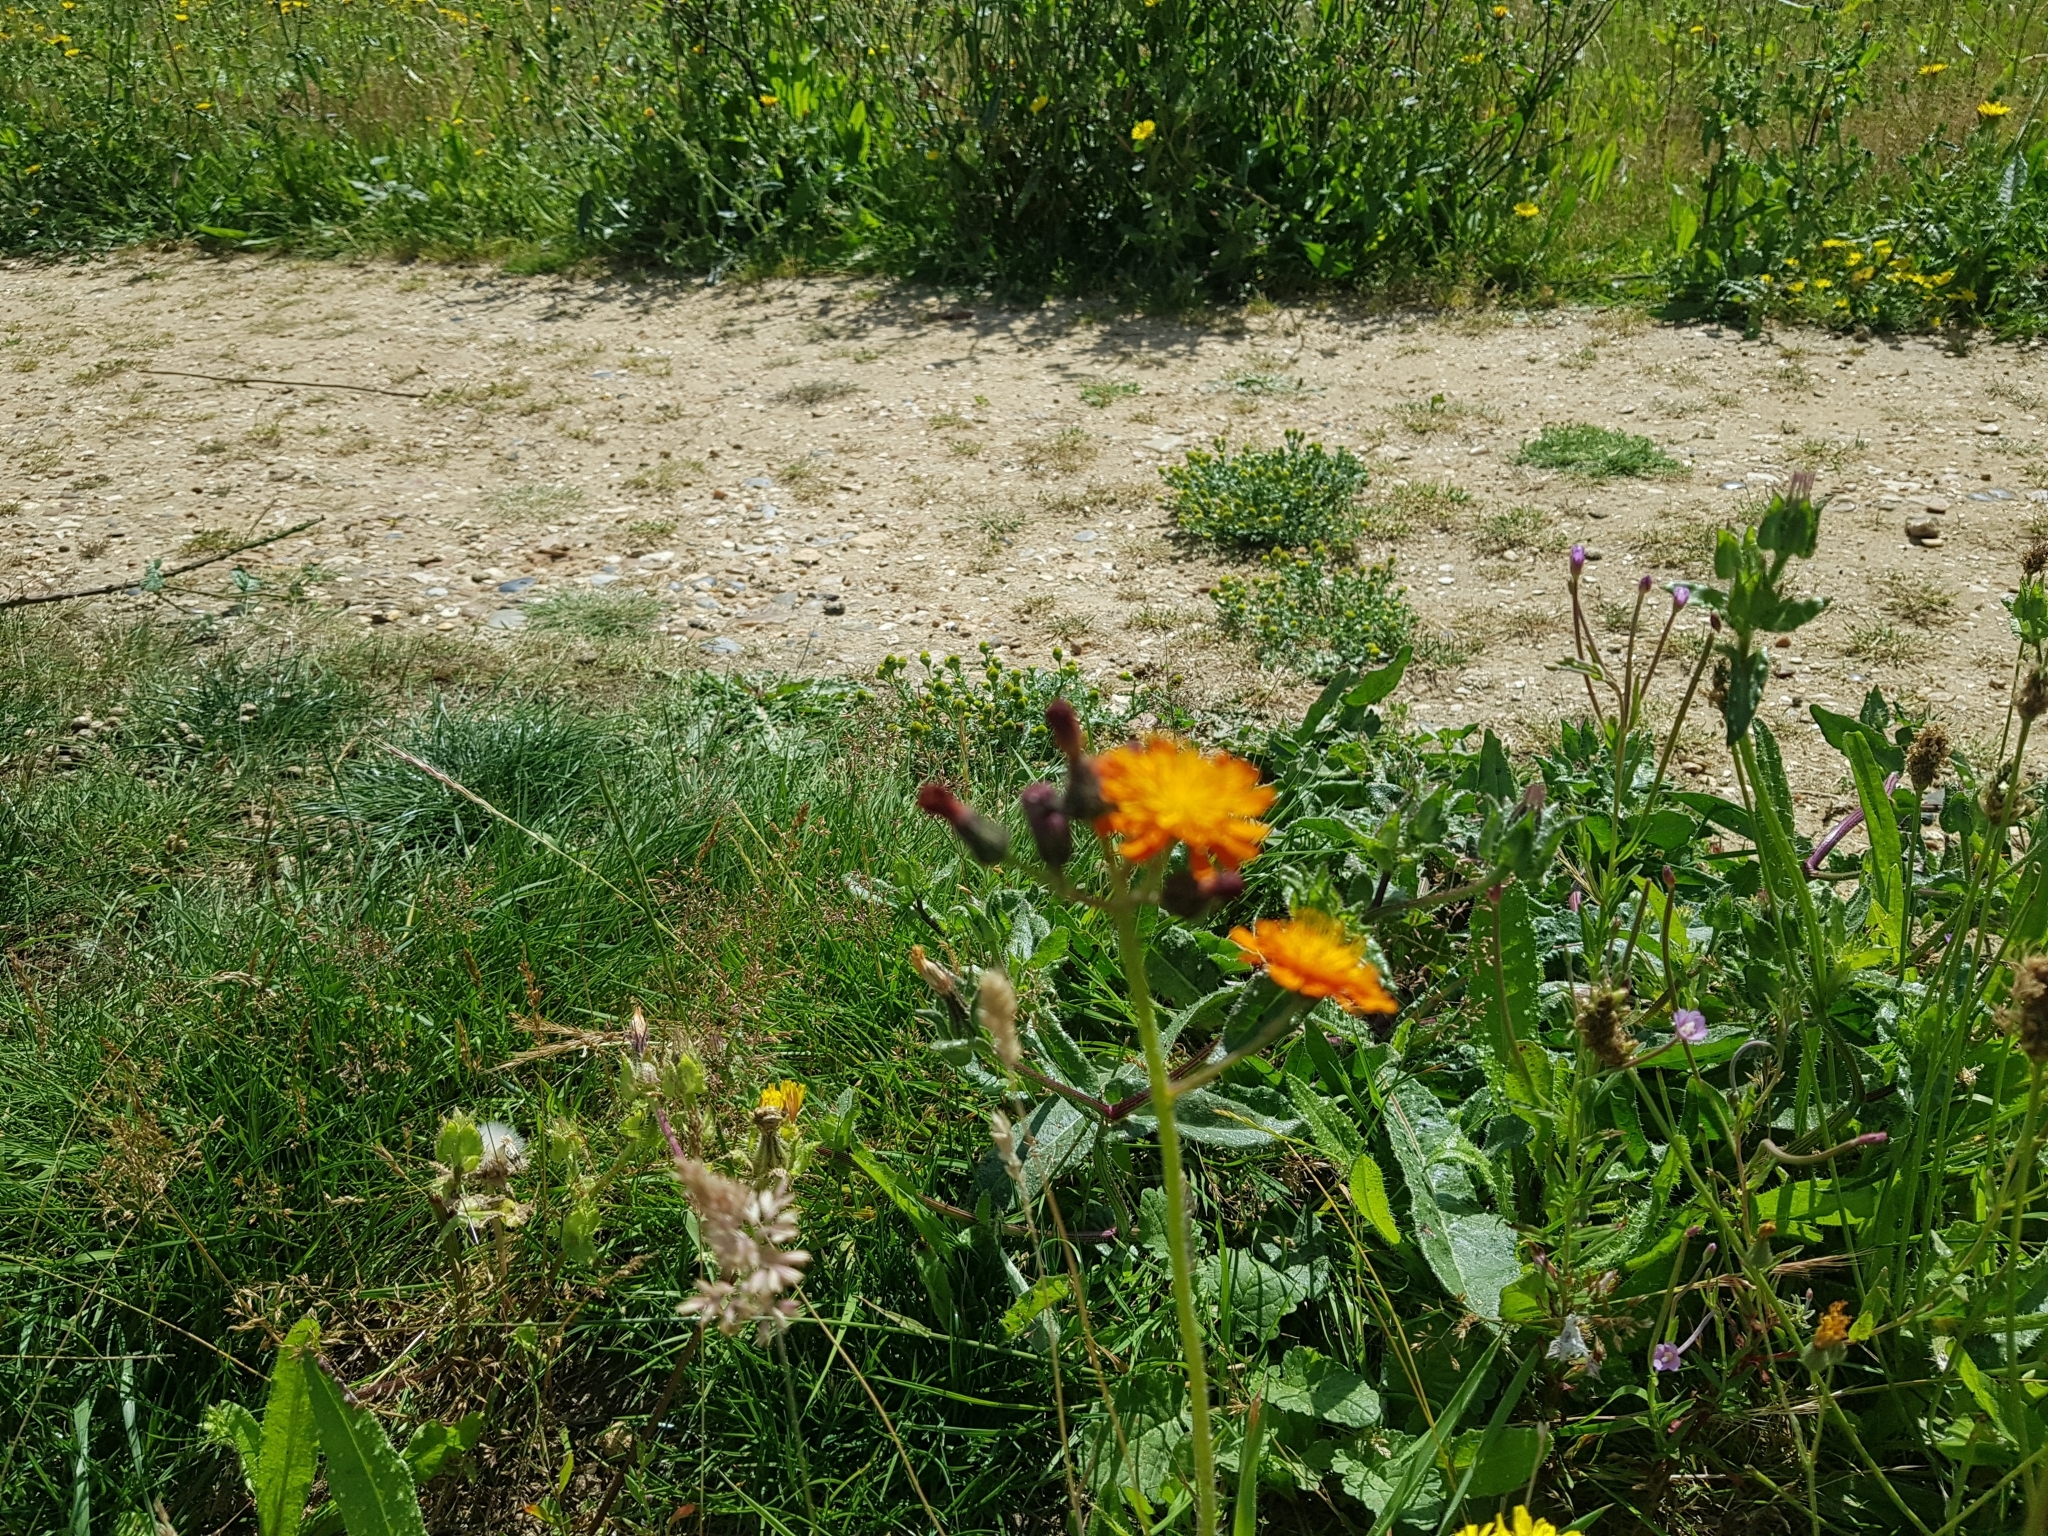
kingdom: Plantae
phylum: Tracheophyta
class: Magnoliopsida
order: Asterales
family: Asteraceae
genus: Pilosella
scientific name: Pilosella aurantiaca
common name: Fox-and-cubs
